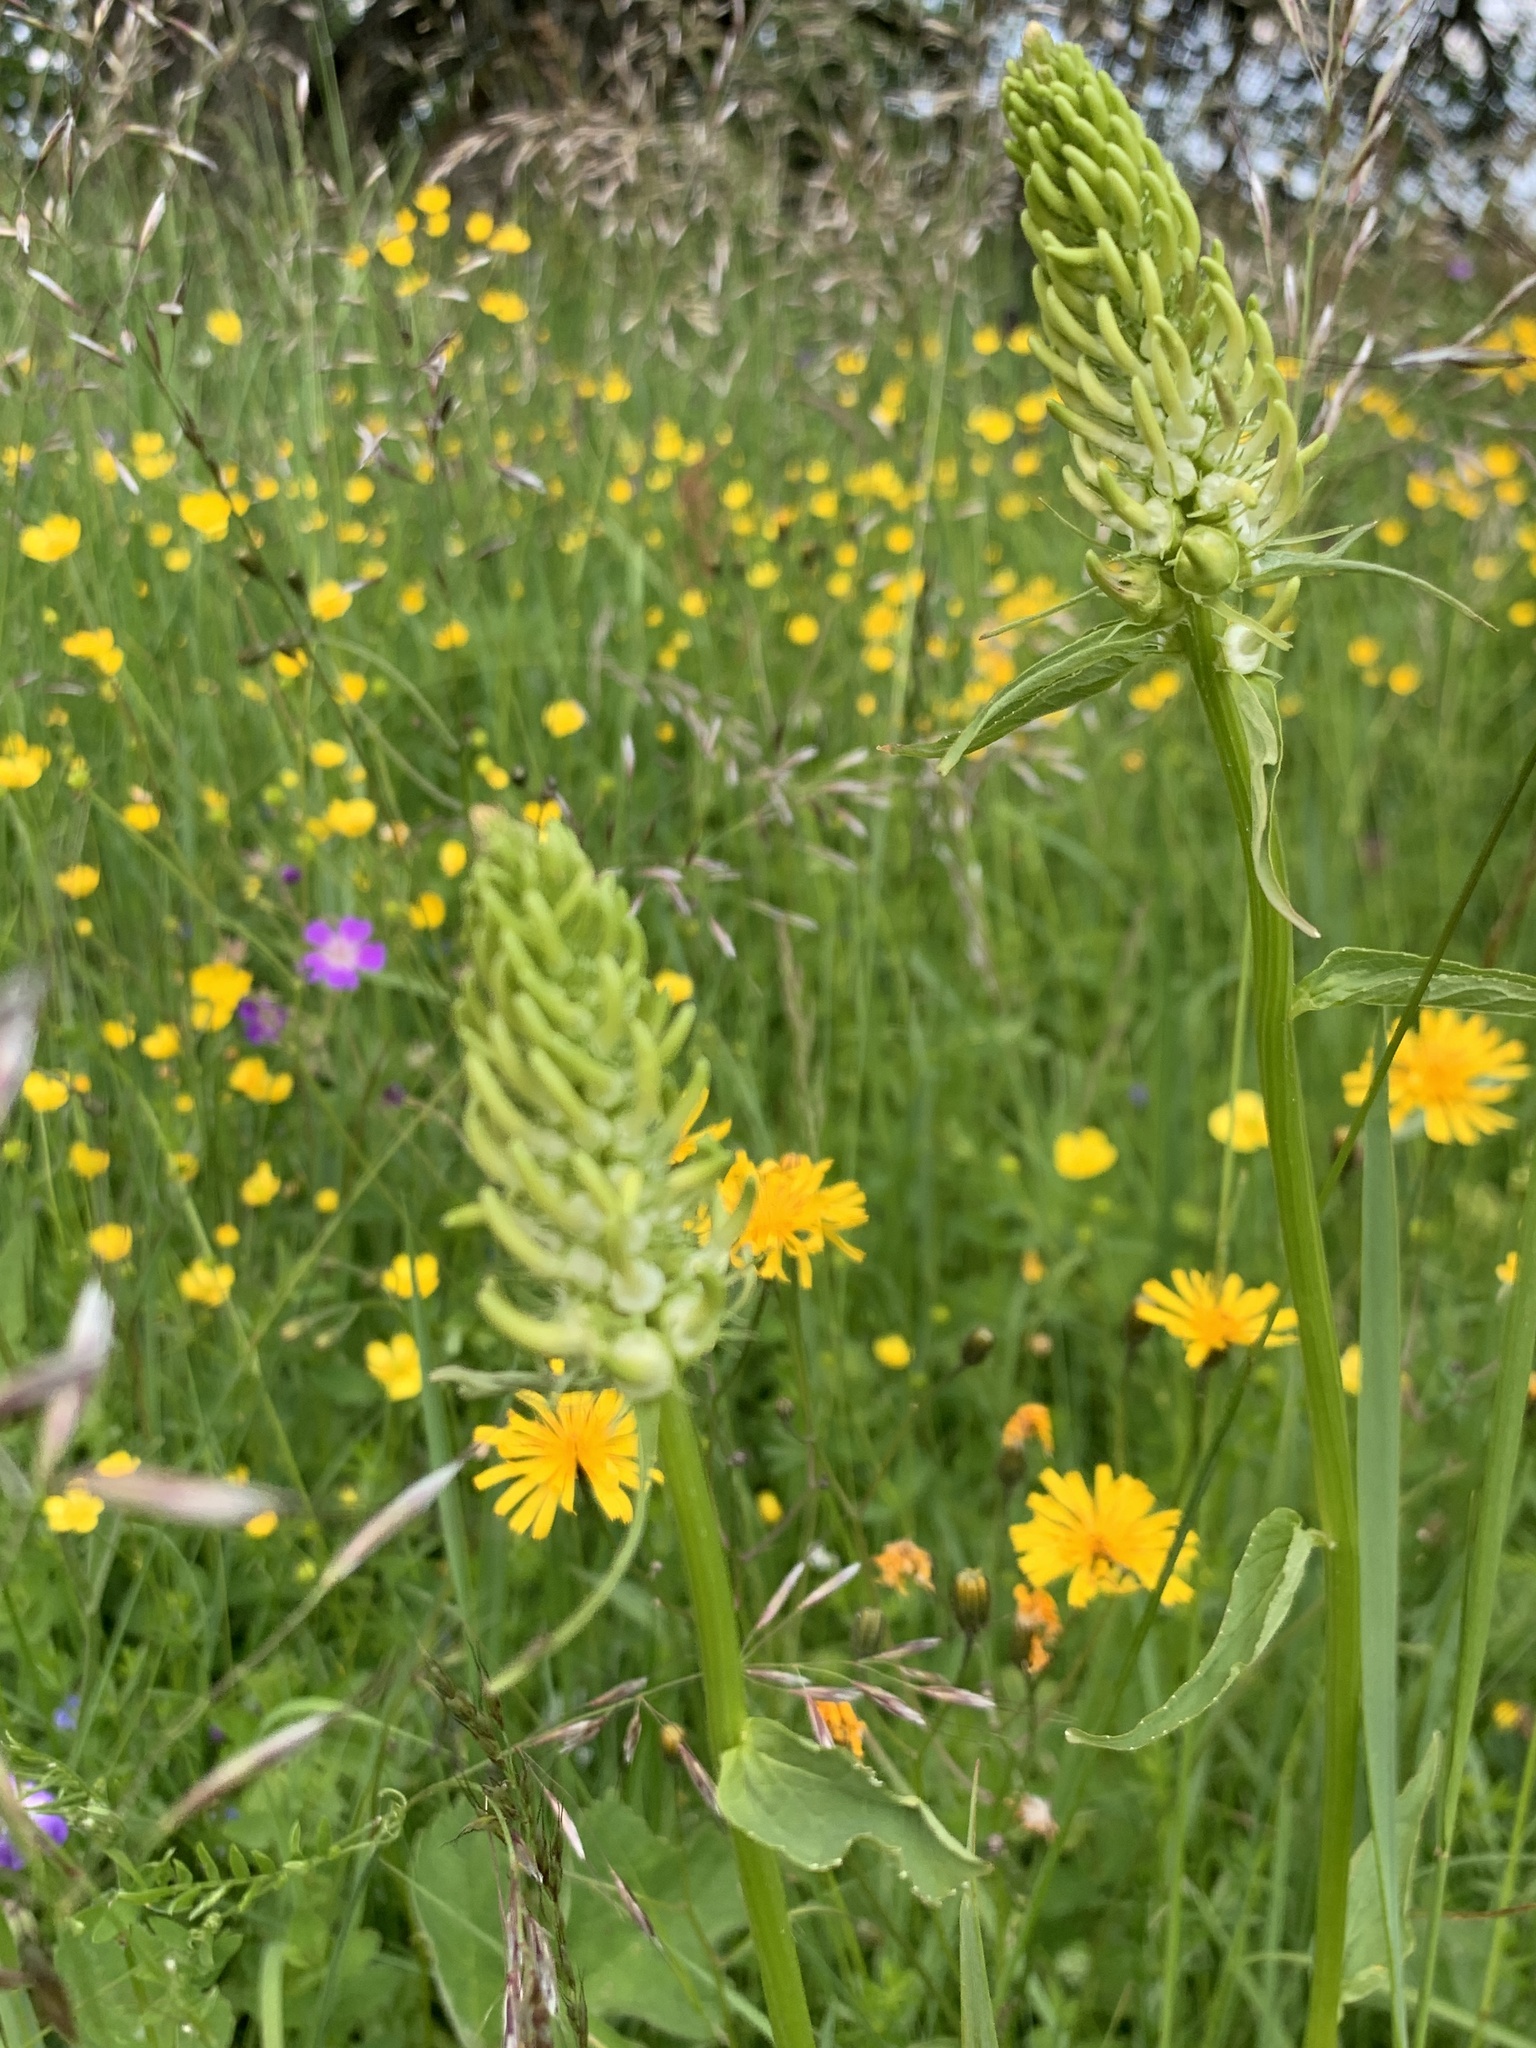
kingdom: Plantae
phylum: Tracheophyta
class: Magnoliopsida
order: Asterales
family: Campanulaceae
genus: Phyteuma
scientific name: Phyteuma spicatum
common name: Spiked rampion
